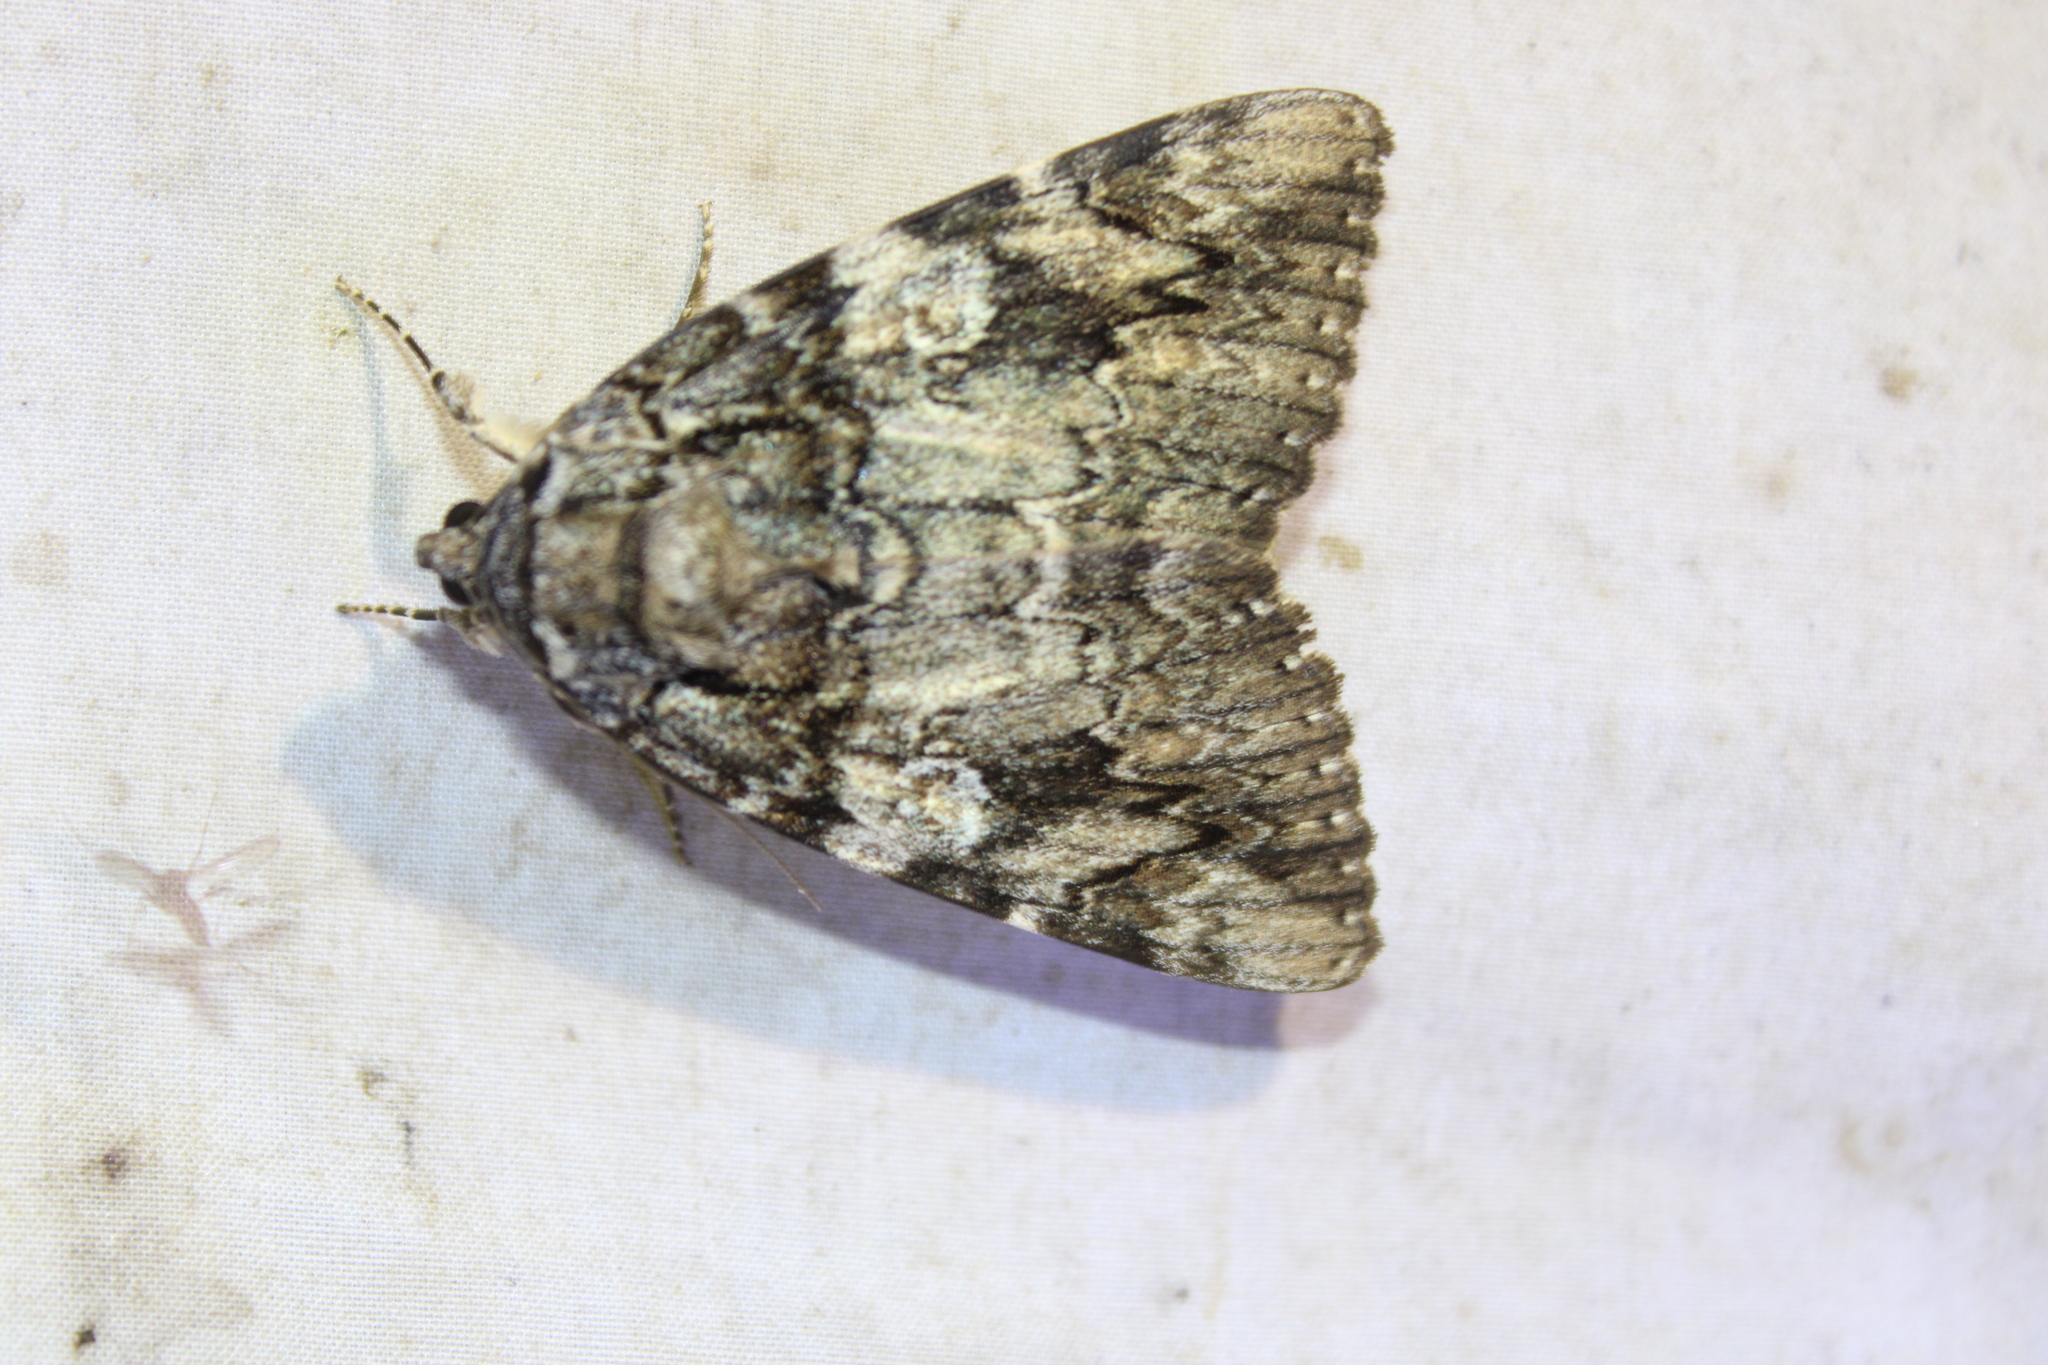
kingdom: Animalia
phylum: Arthropoda
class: Insecta
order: Lepidoptera
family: Erebidae
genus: Catocala
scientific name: Catocala ilia
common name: Ilia underwing
